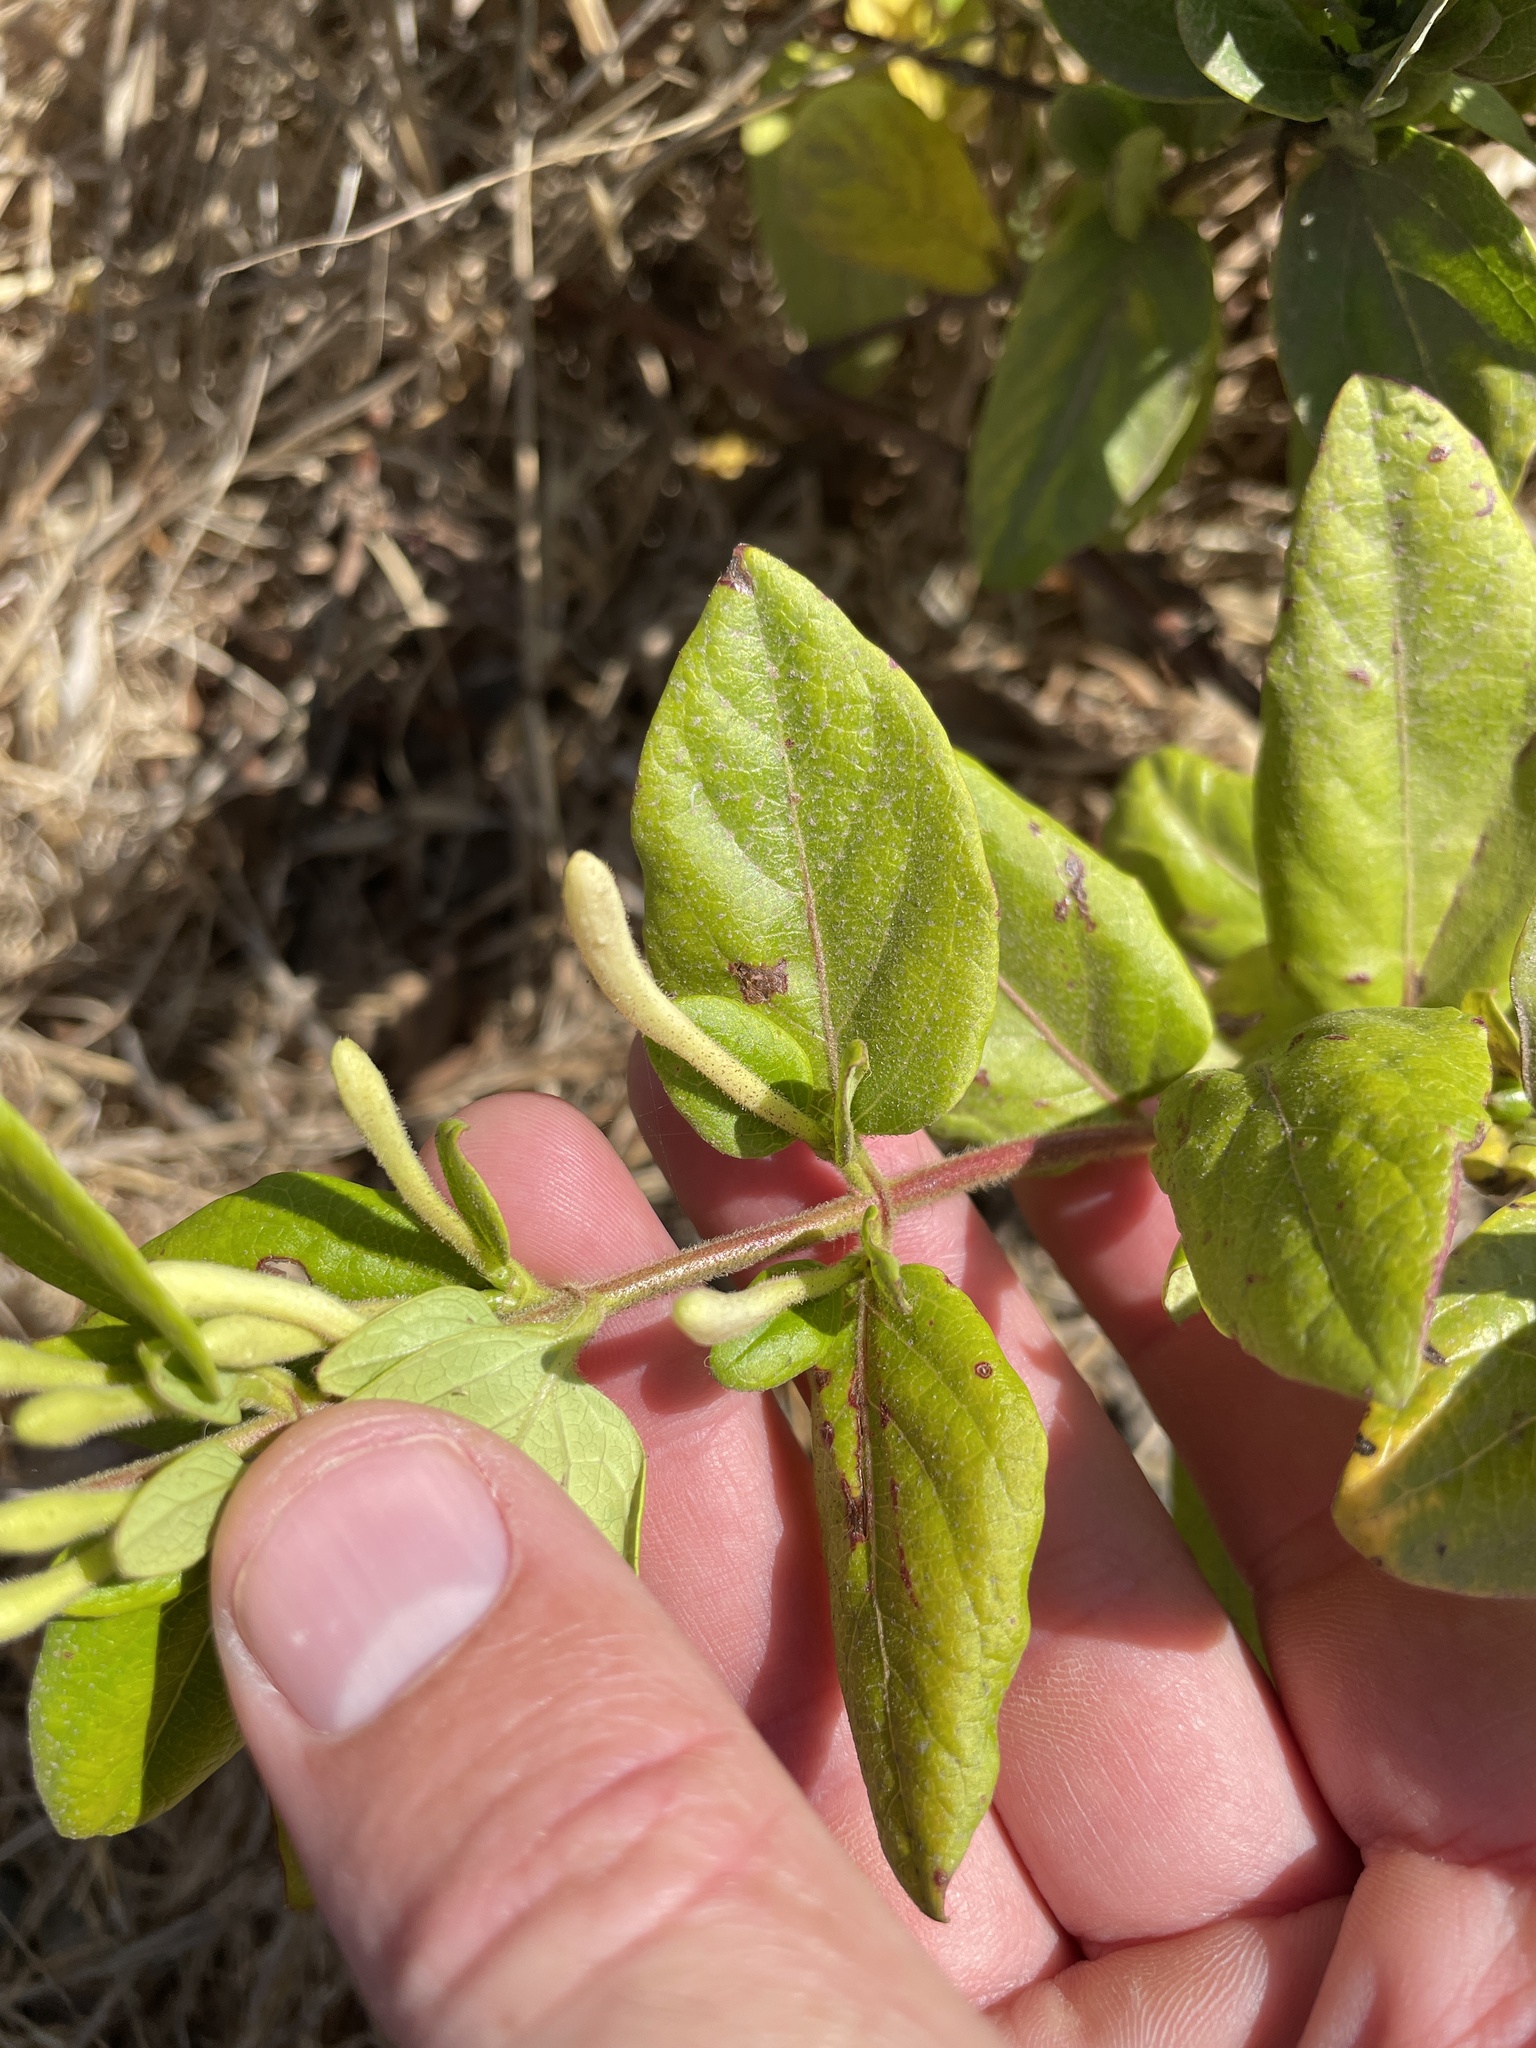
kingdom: Plantae
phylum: Tracheophyta
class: Magnoliopsida
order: Dipsacales
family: Caprifoliaceae
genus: Lonicera
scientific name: Lonicera japonica
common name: Japanese honeysuckle
